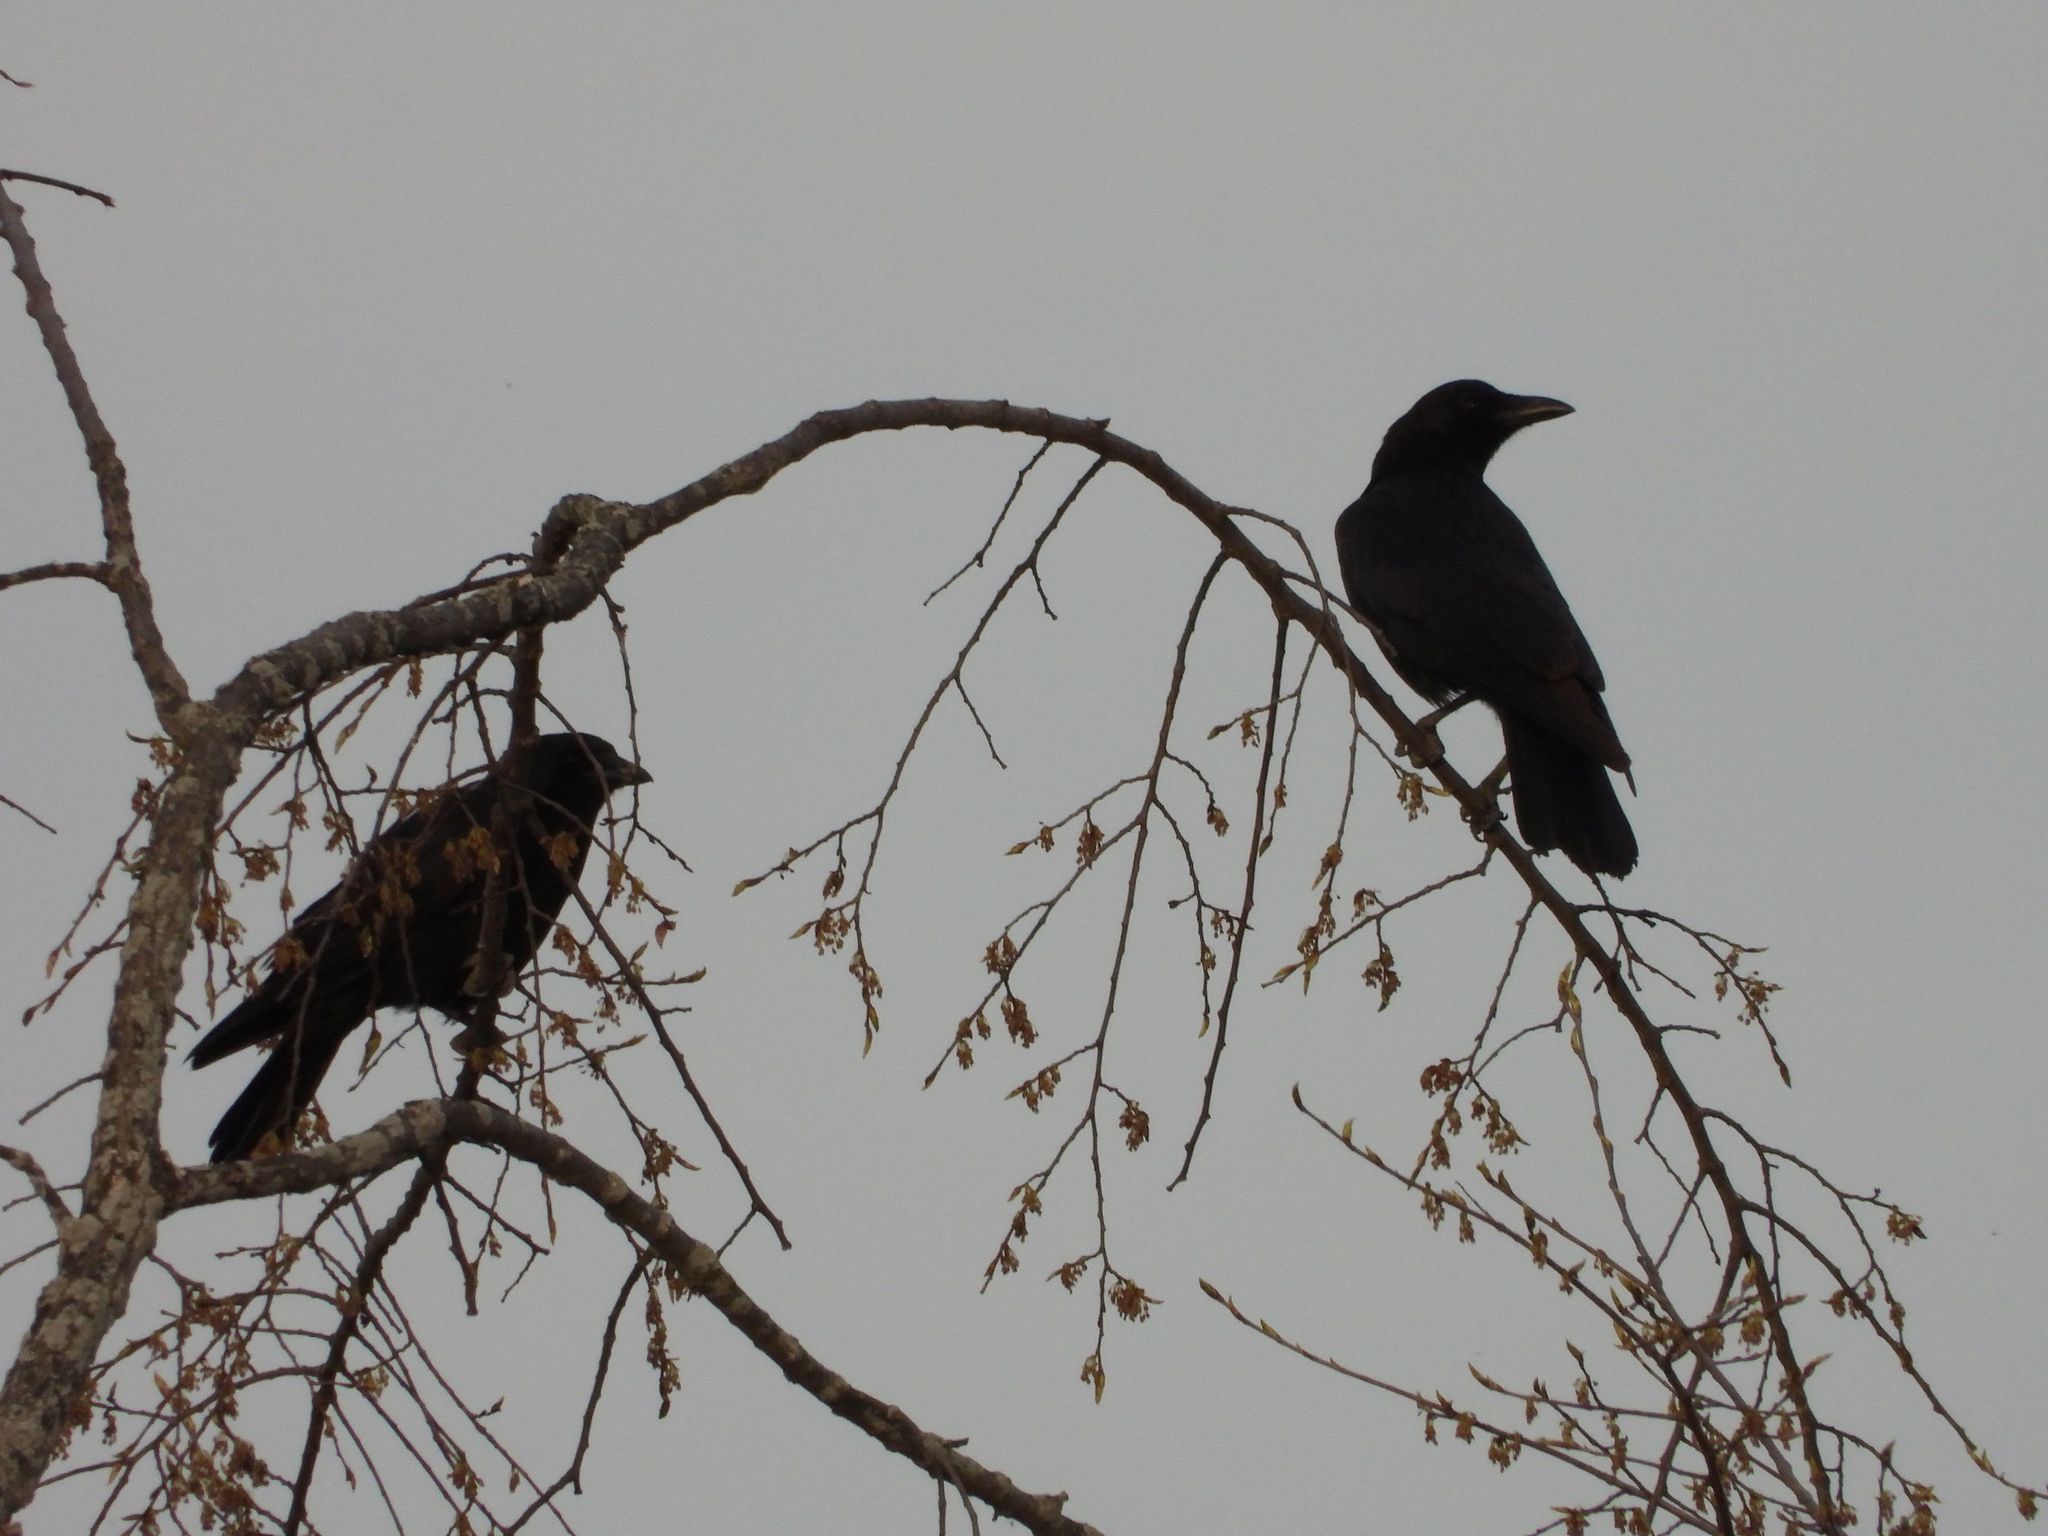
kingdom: Animalia
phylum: Chordata
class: Aves
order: Passeriformes
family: Corvidae
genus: Corvus
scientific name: Corvus brachyrhynchos
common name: American crow
